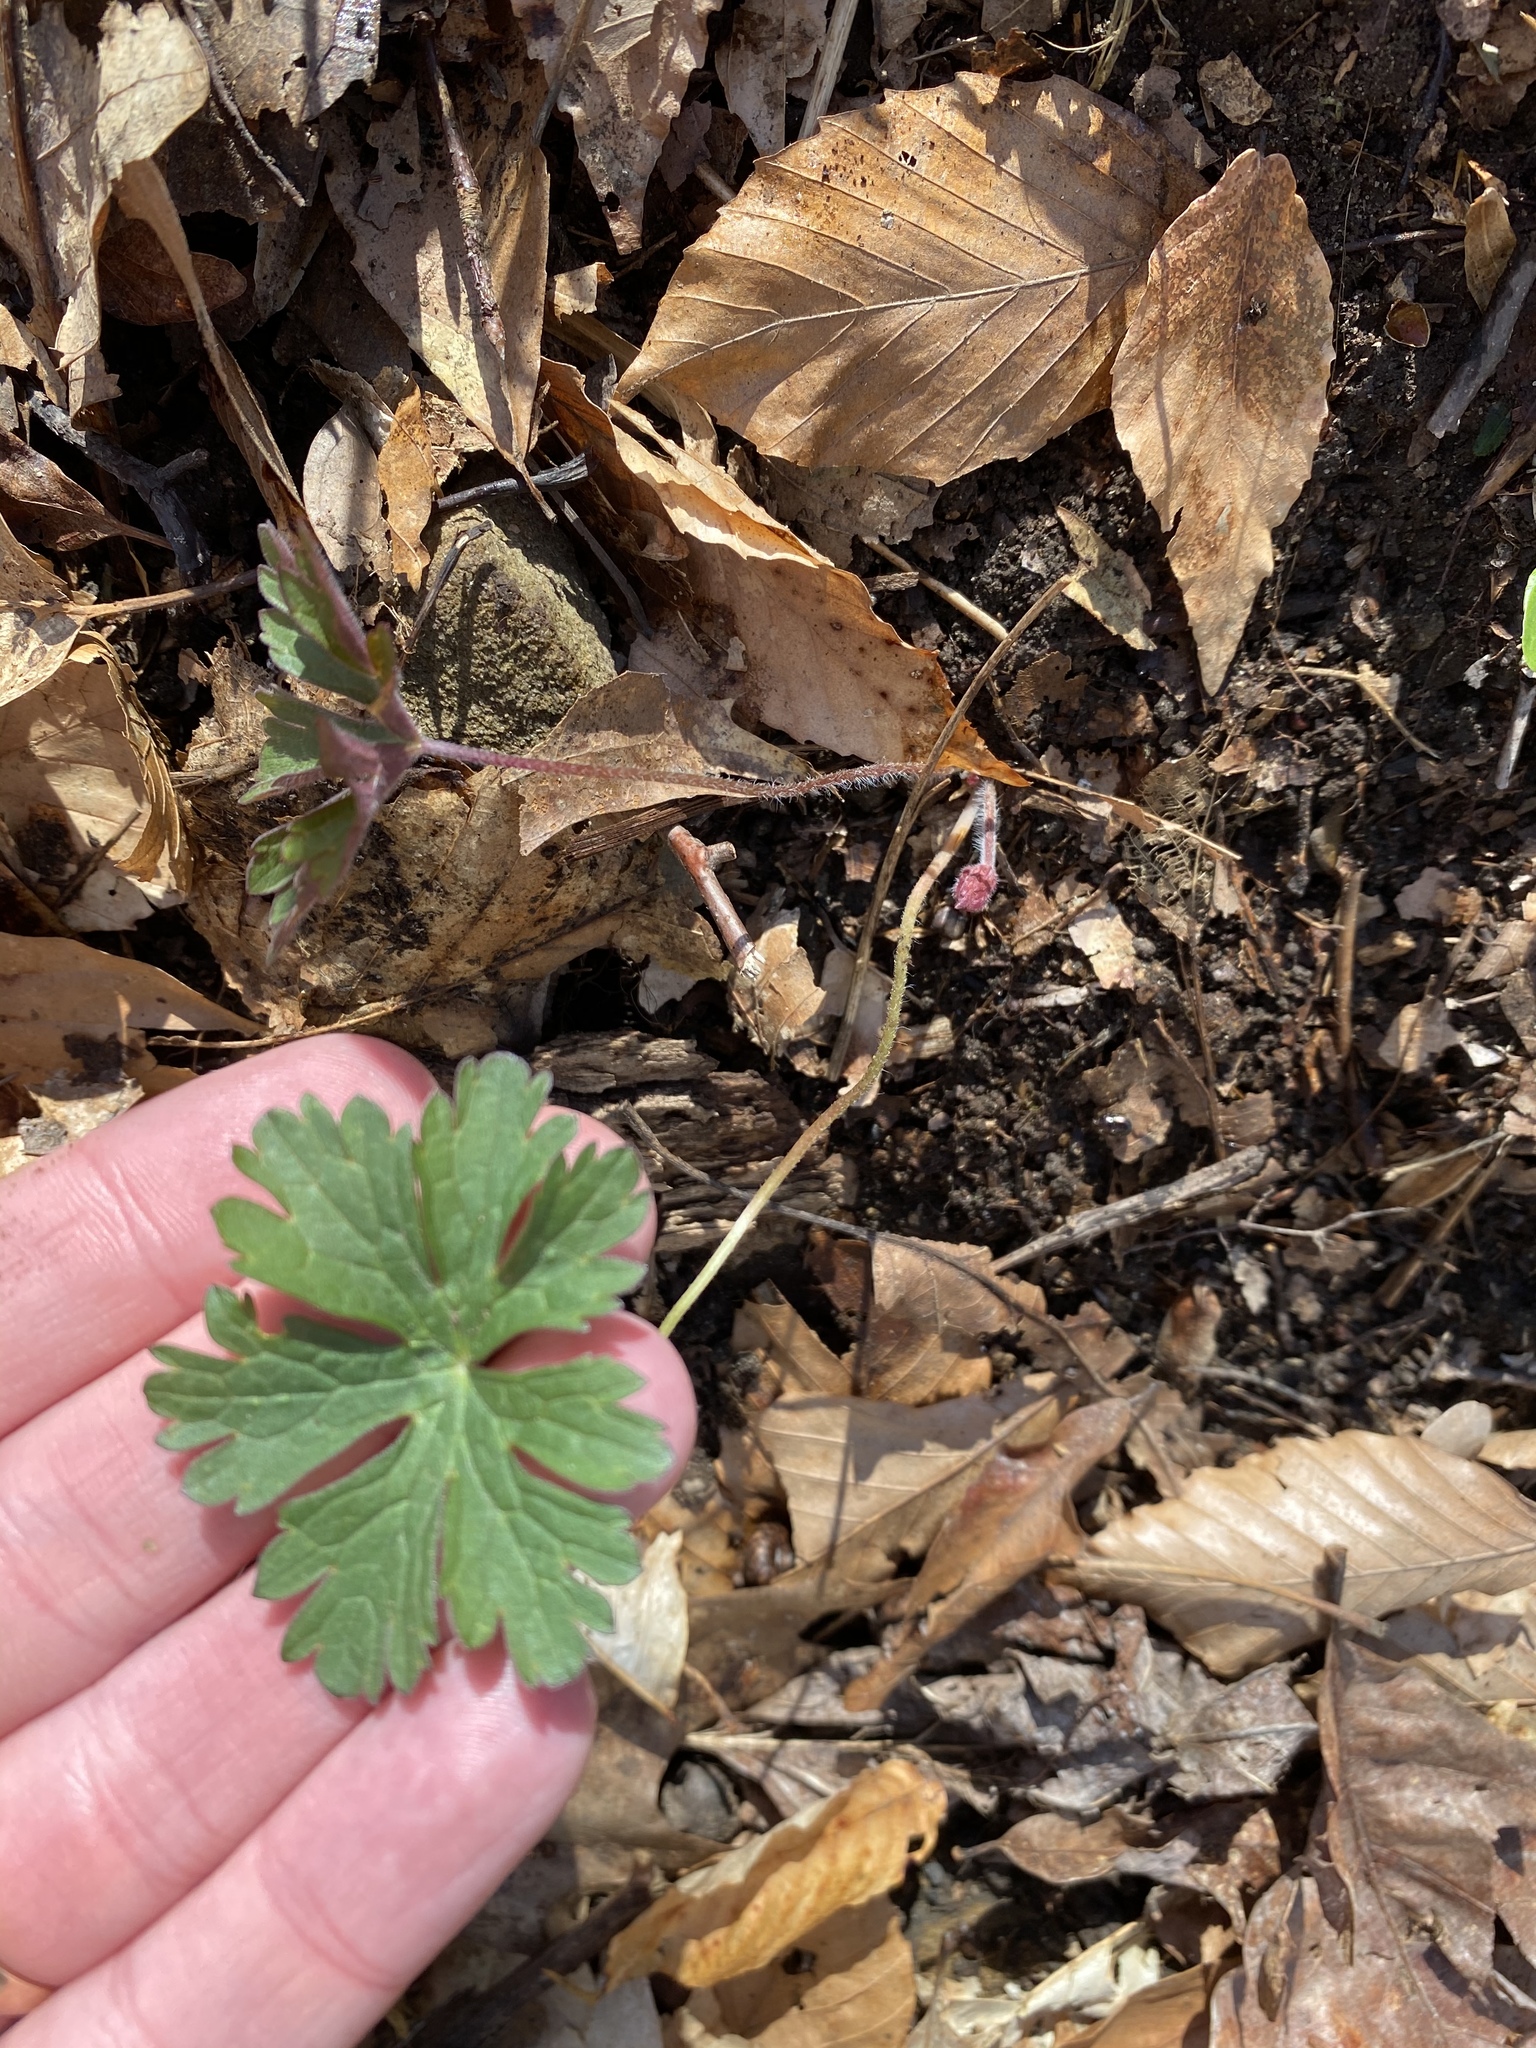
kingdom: Plantae
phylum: Tracheophyta
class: Magnoliopsida
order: Geraniales
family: Geraniaceae
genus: Geranium
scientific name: Geranium maculatum
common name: Spotted geranium
